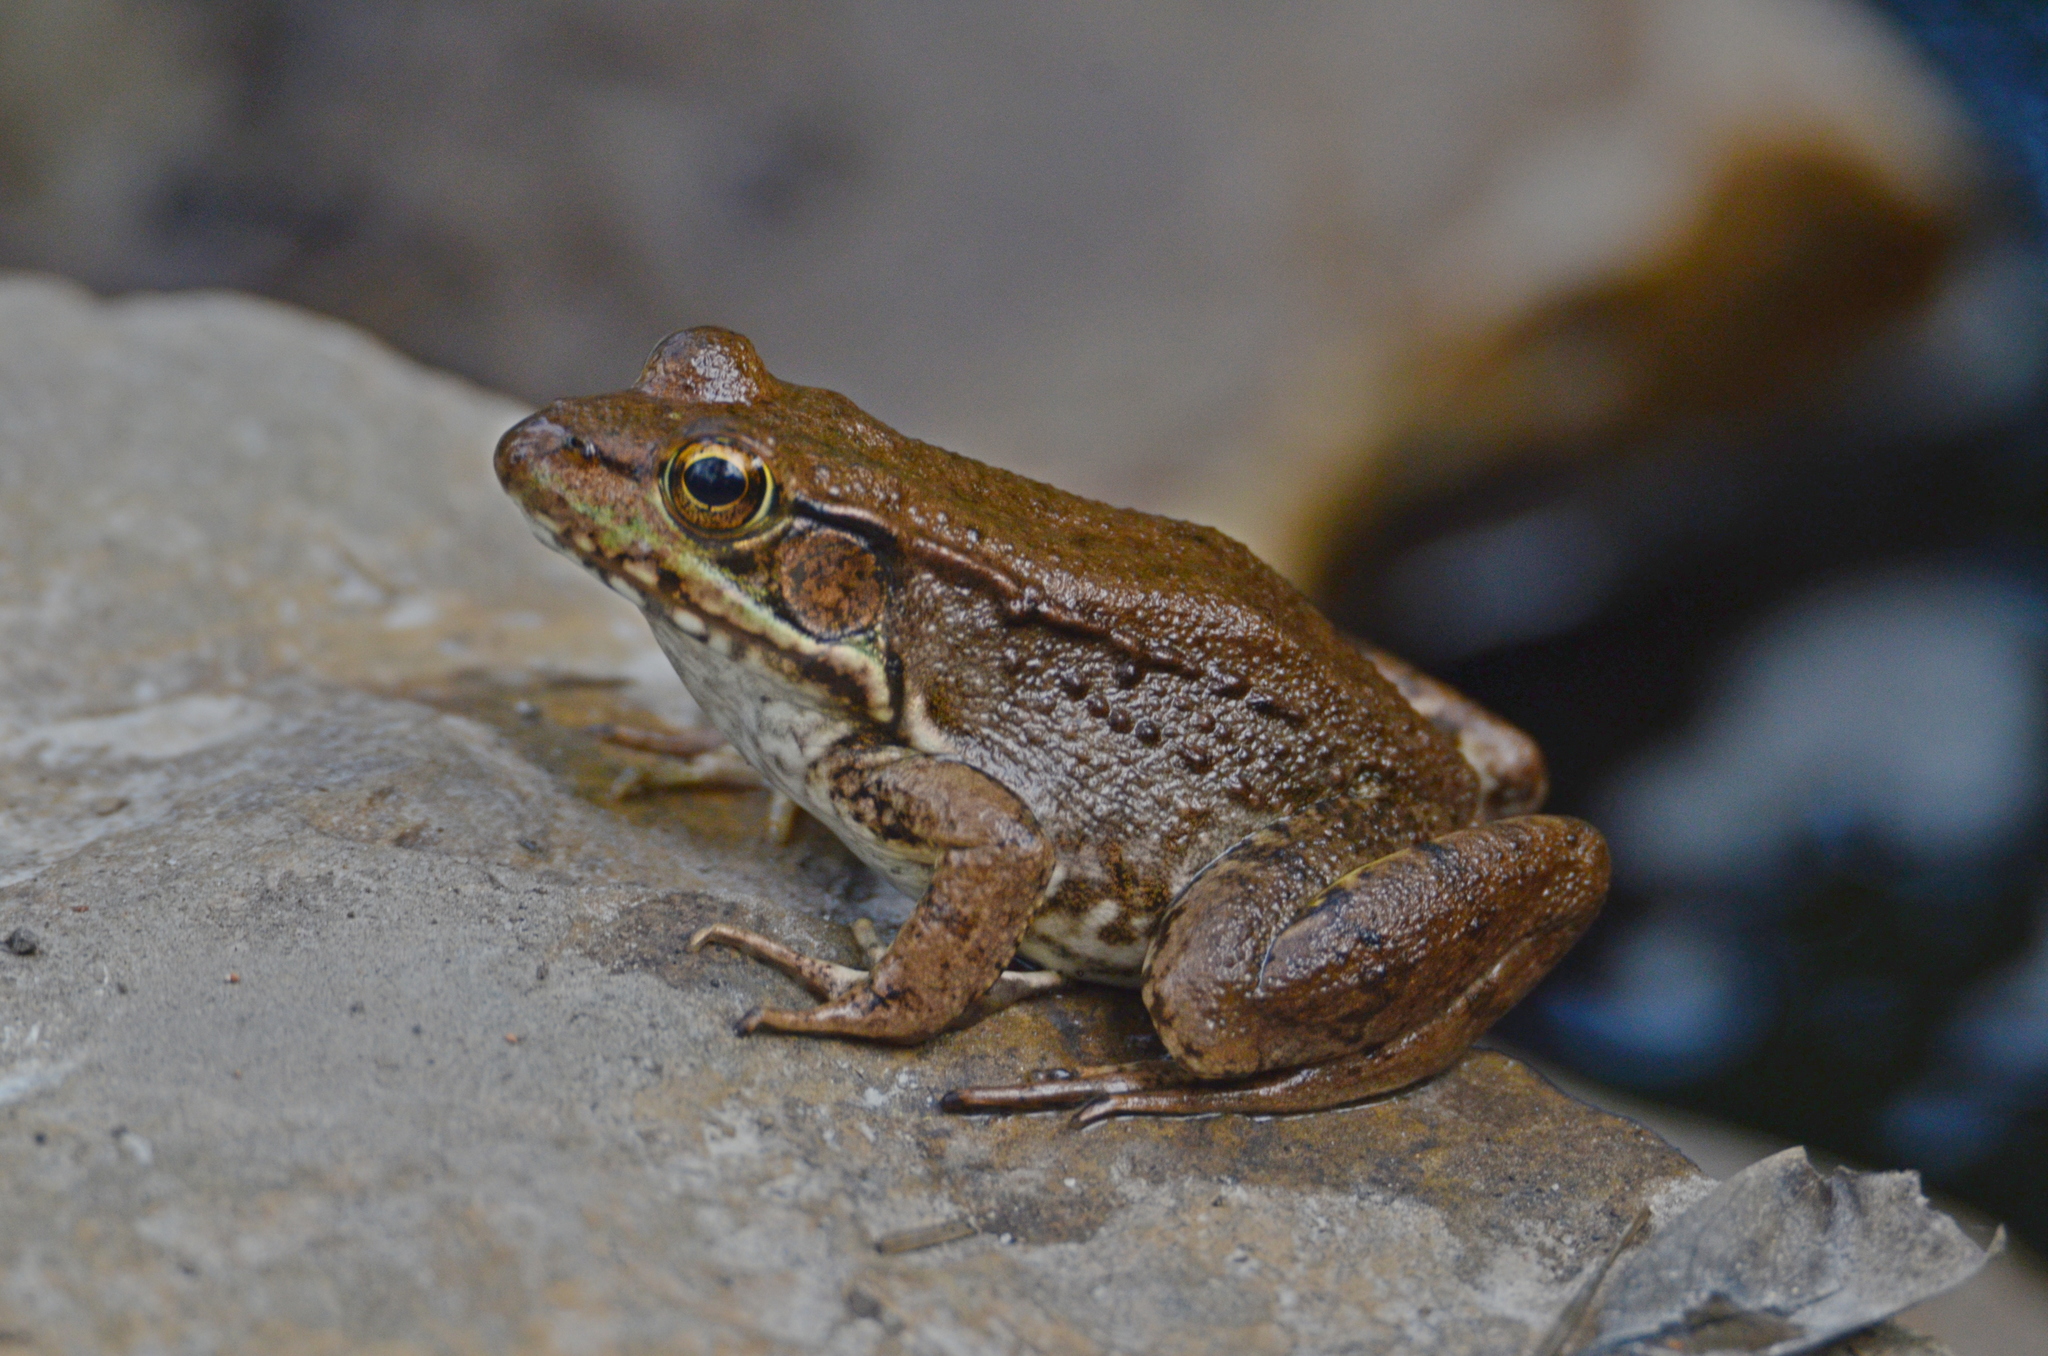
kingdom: Animalia
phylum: Chordata
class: Amphibia
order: Anura
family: Ranidae
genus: Lithobates
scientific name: Lithobates clamitans
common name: Green frog
